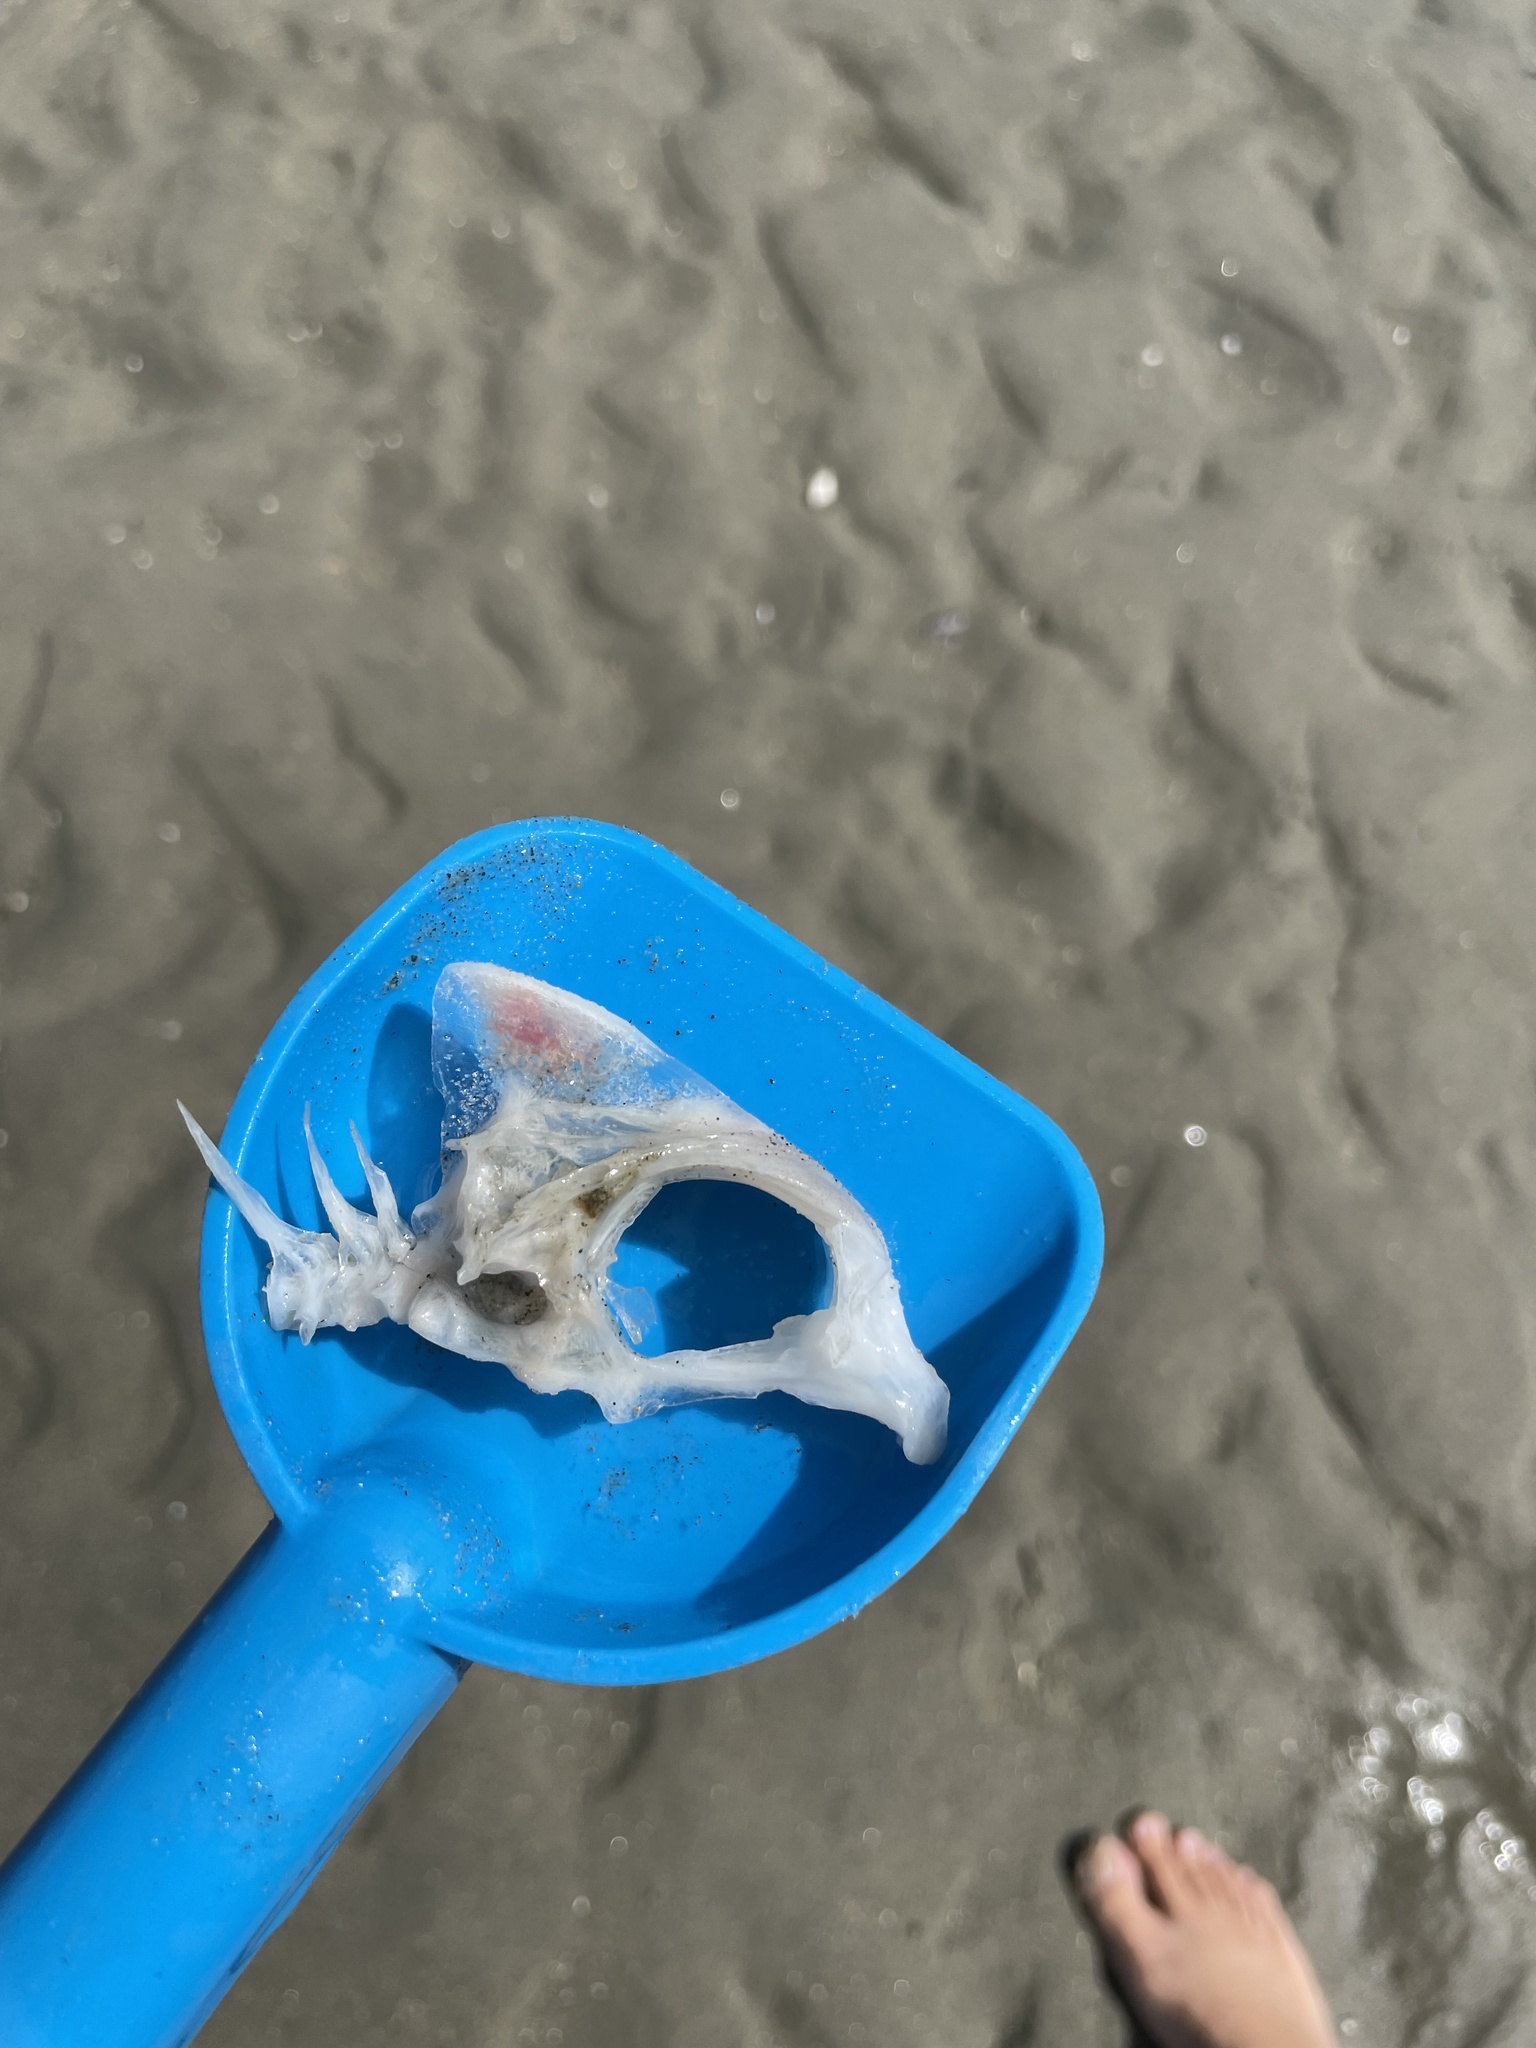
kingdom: Animalia
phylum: Chordata
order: Perciformes
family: Sparidae
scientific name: Sparidae
